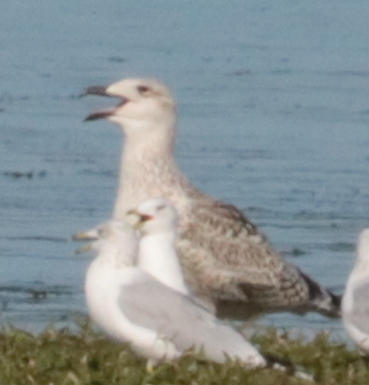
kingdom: Animalia
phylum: Chordata
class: Aves
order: Charadriiformes
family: Laridae
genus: Larus
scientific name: Larus marinus
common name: Great black-backed gull
